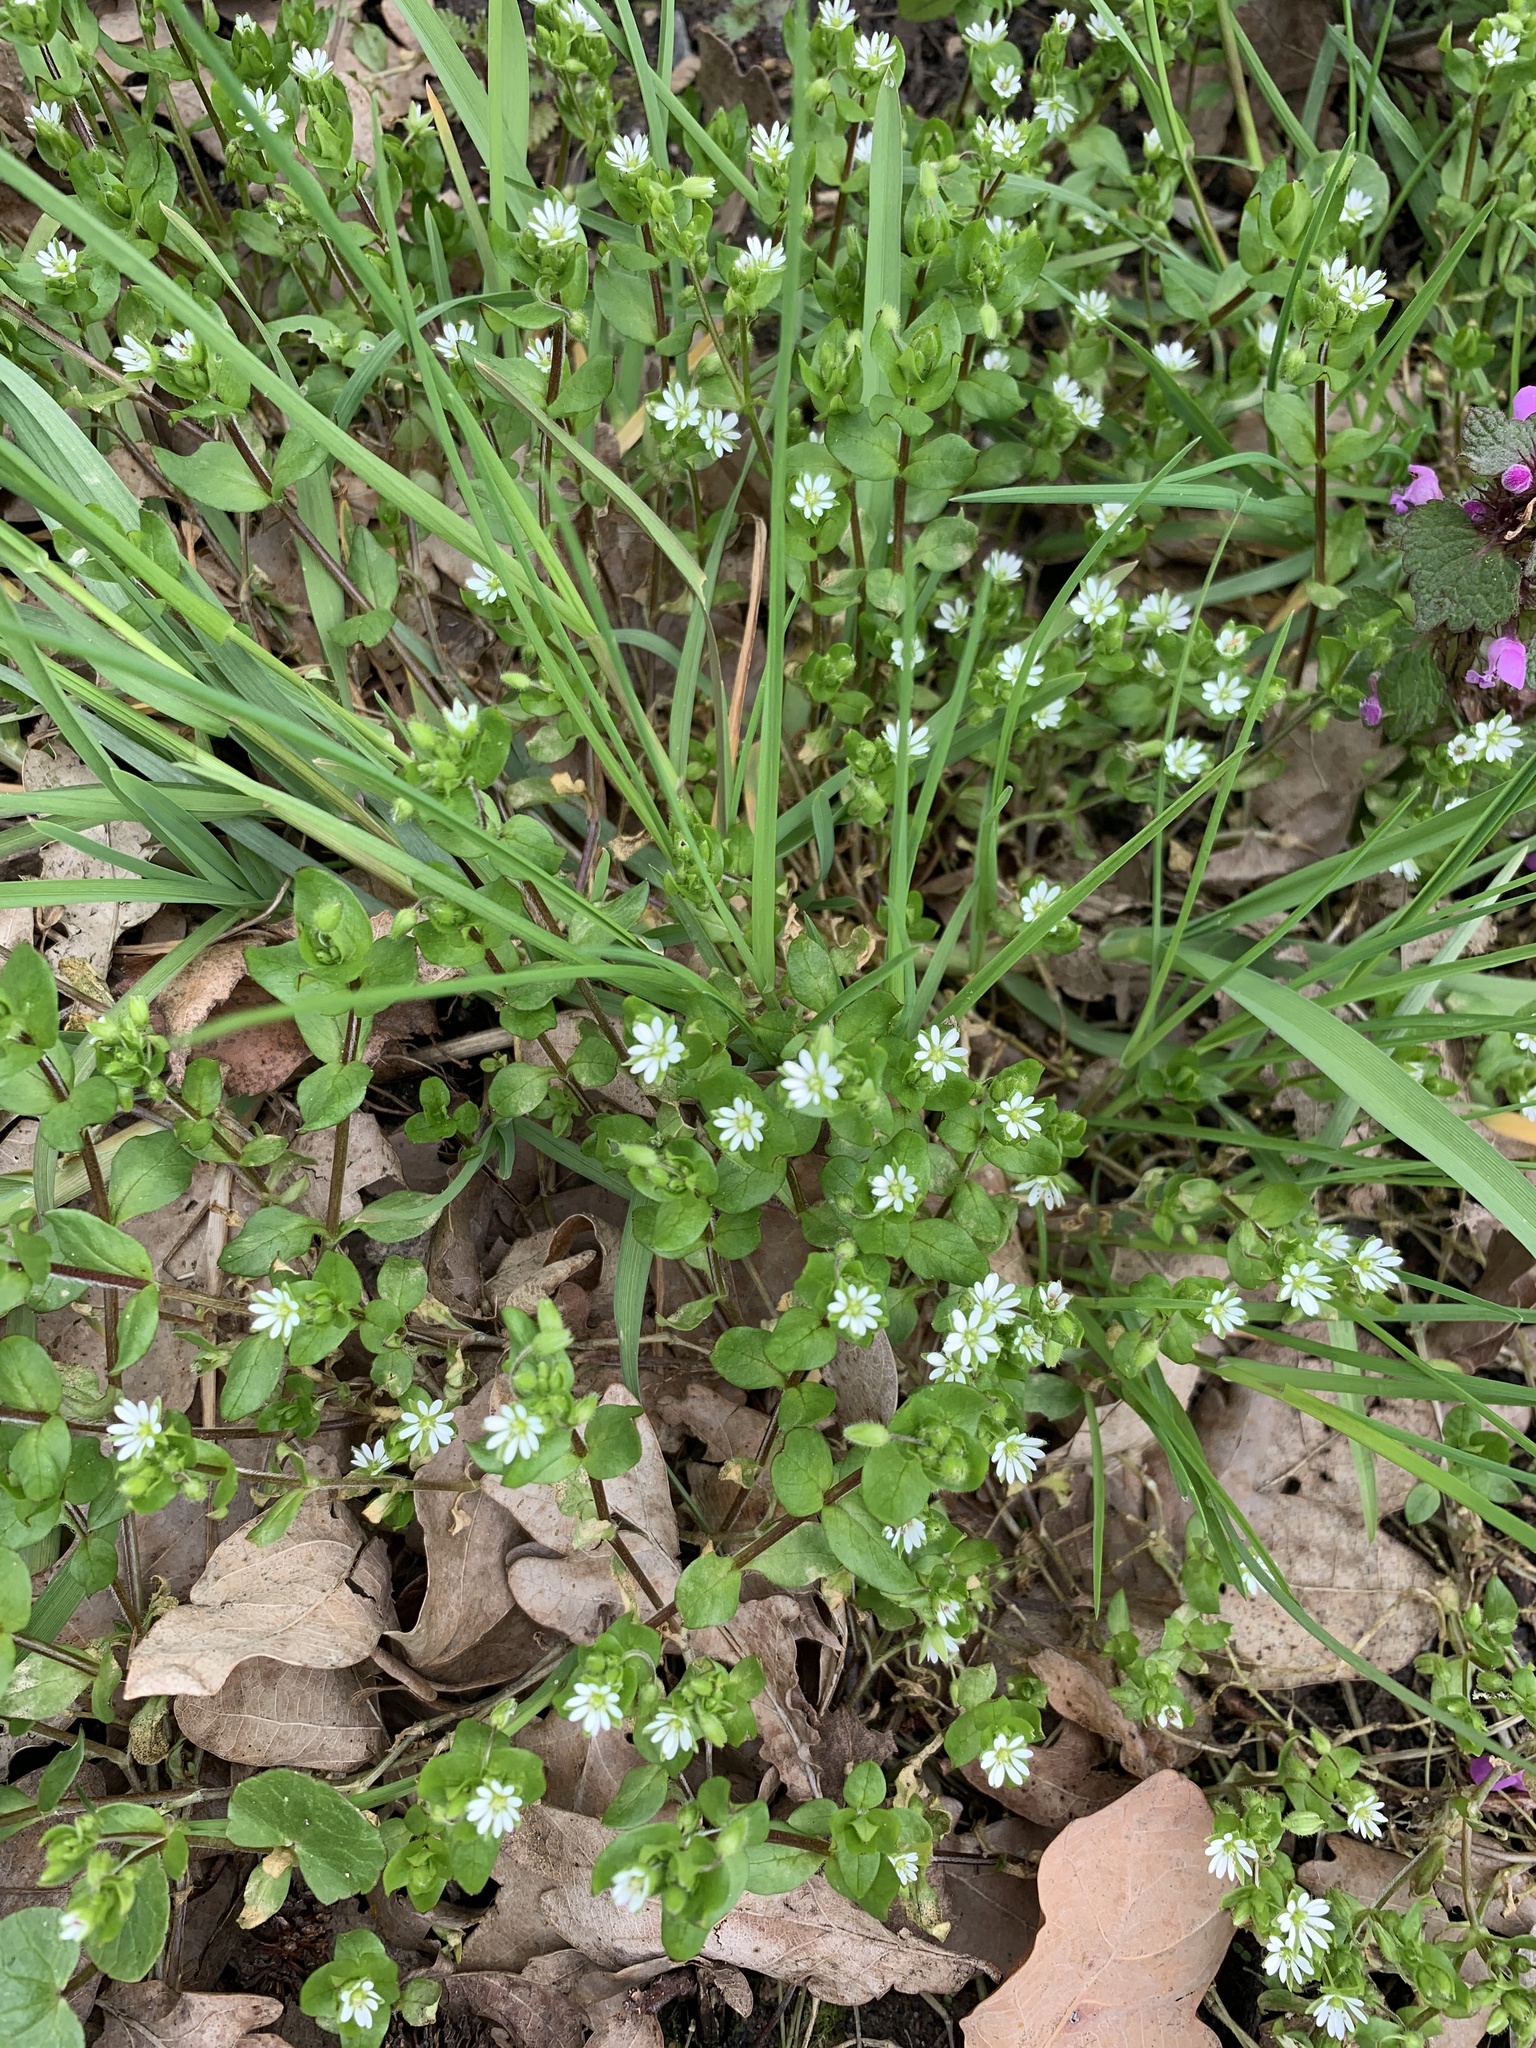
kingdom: Plantae
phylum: Tracheophyta
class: Magnoliopsida
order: Caryophyllales
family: Caryophyllaceae
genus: Stellaria
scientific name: Stellaria media
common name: Common chickweed
